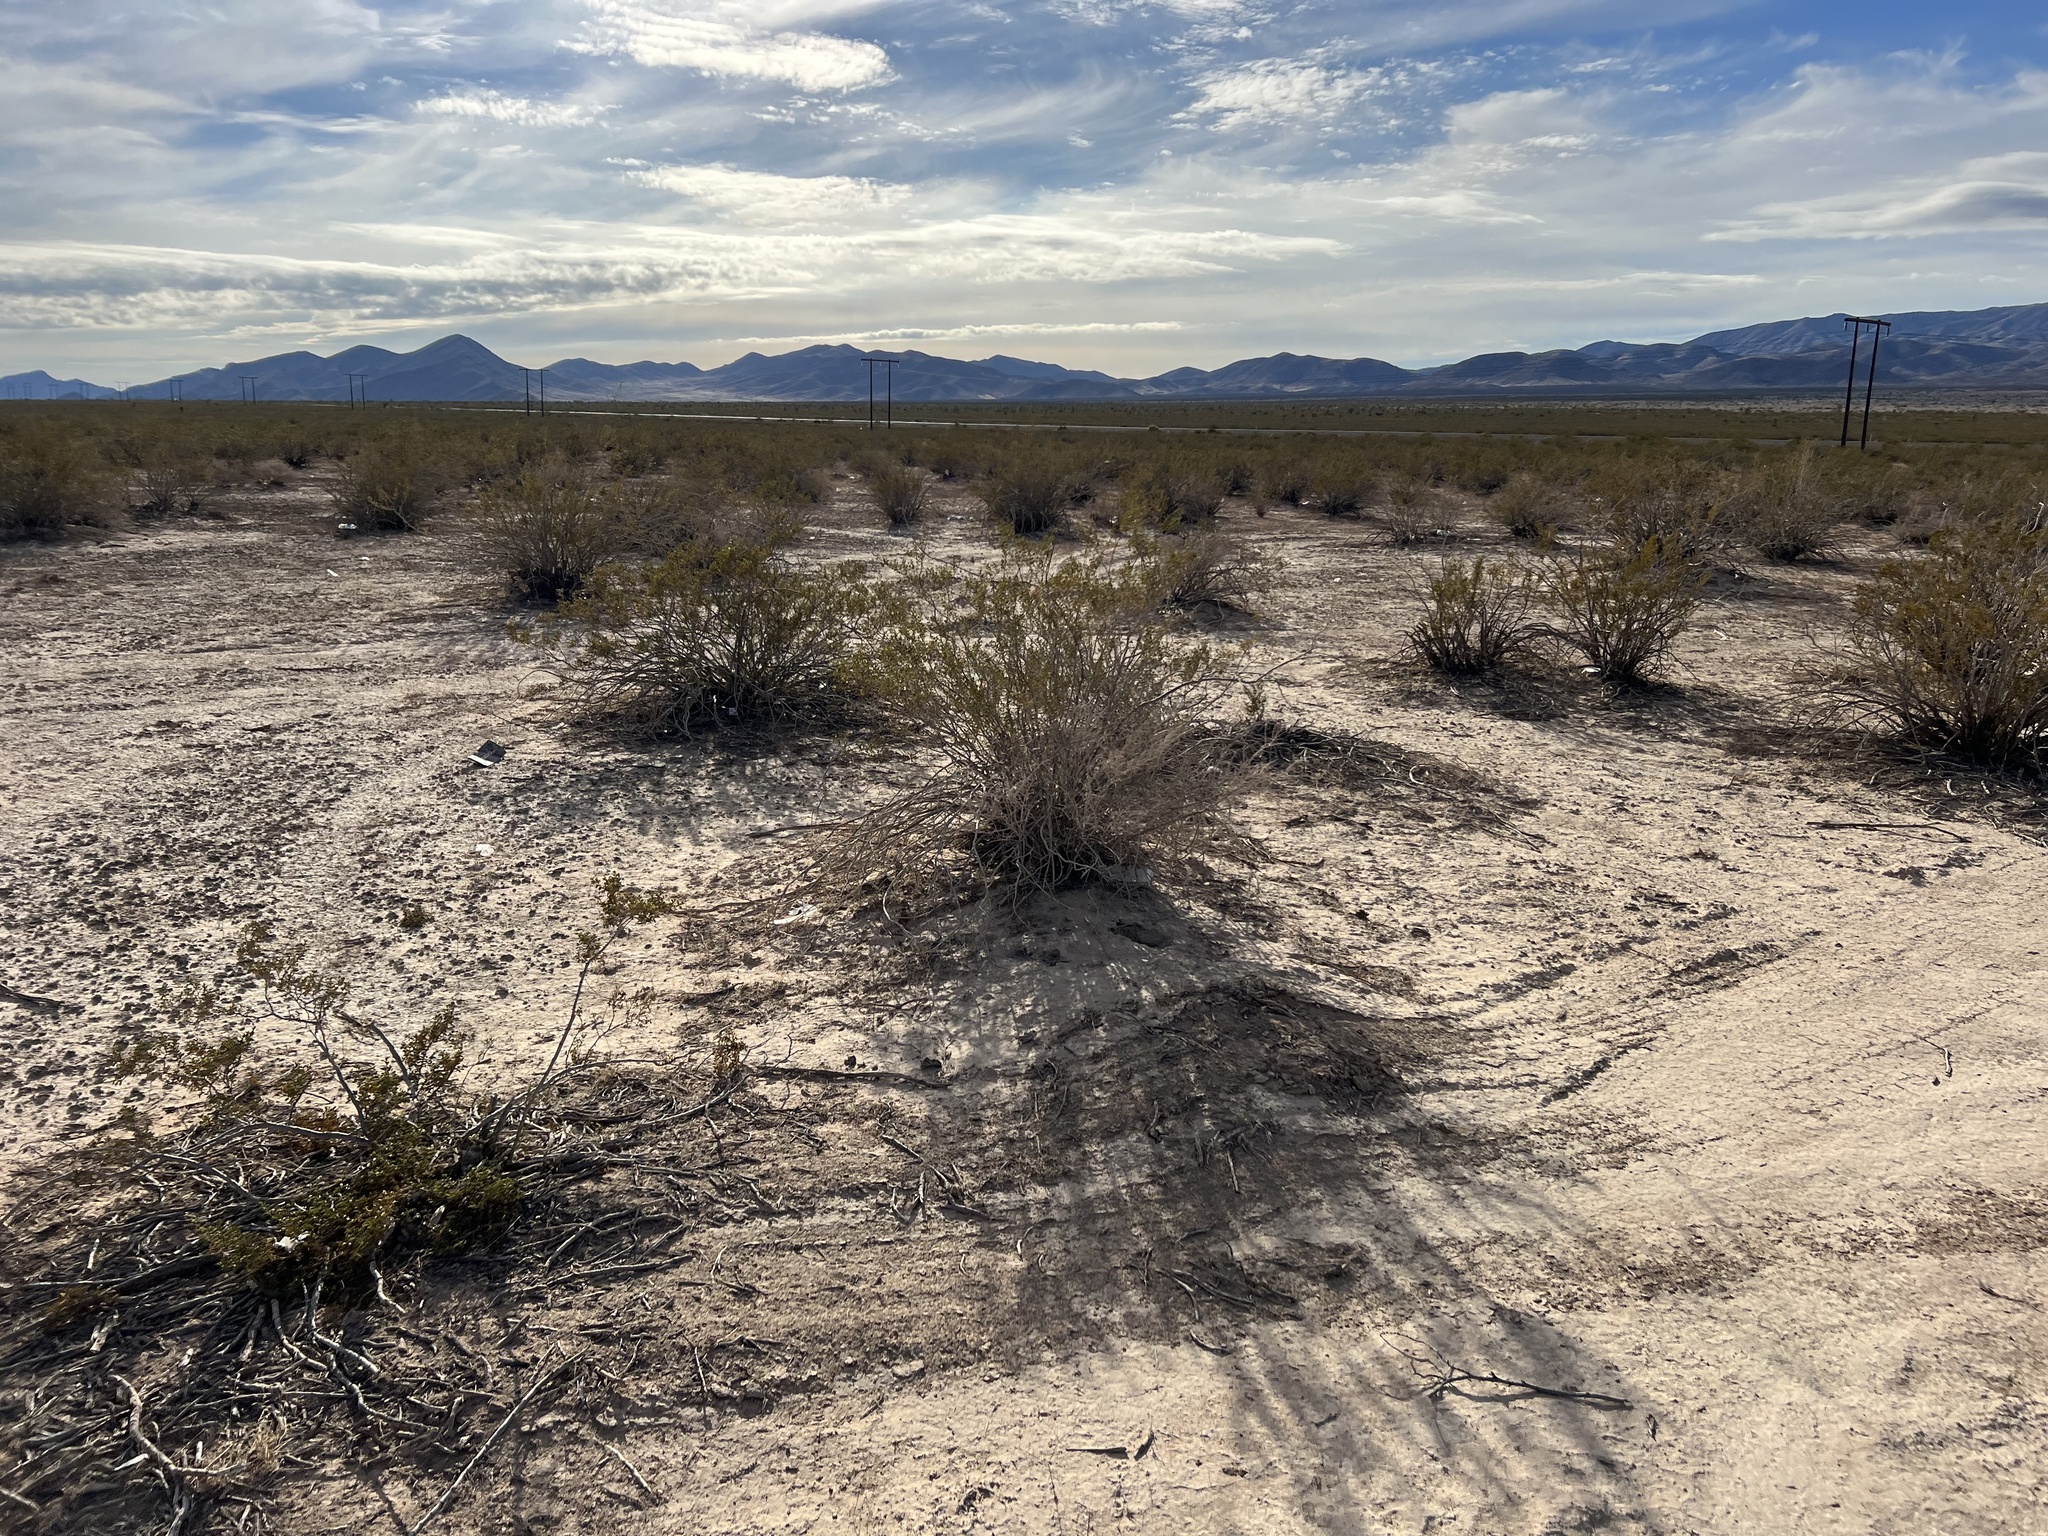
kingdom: Plantae
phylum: Tracheophyta
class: Magnoliopsida
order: Zygophyllales
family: Zygophyllaceae
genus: Larrea
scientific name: Larrea tridentata
